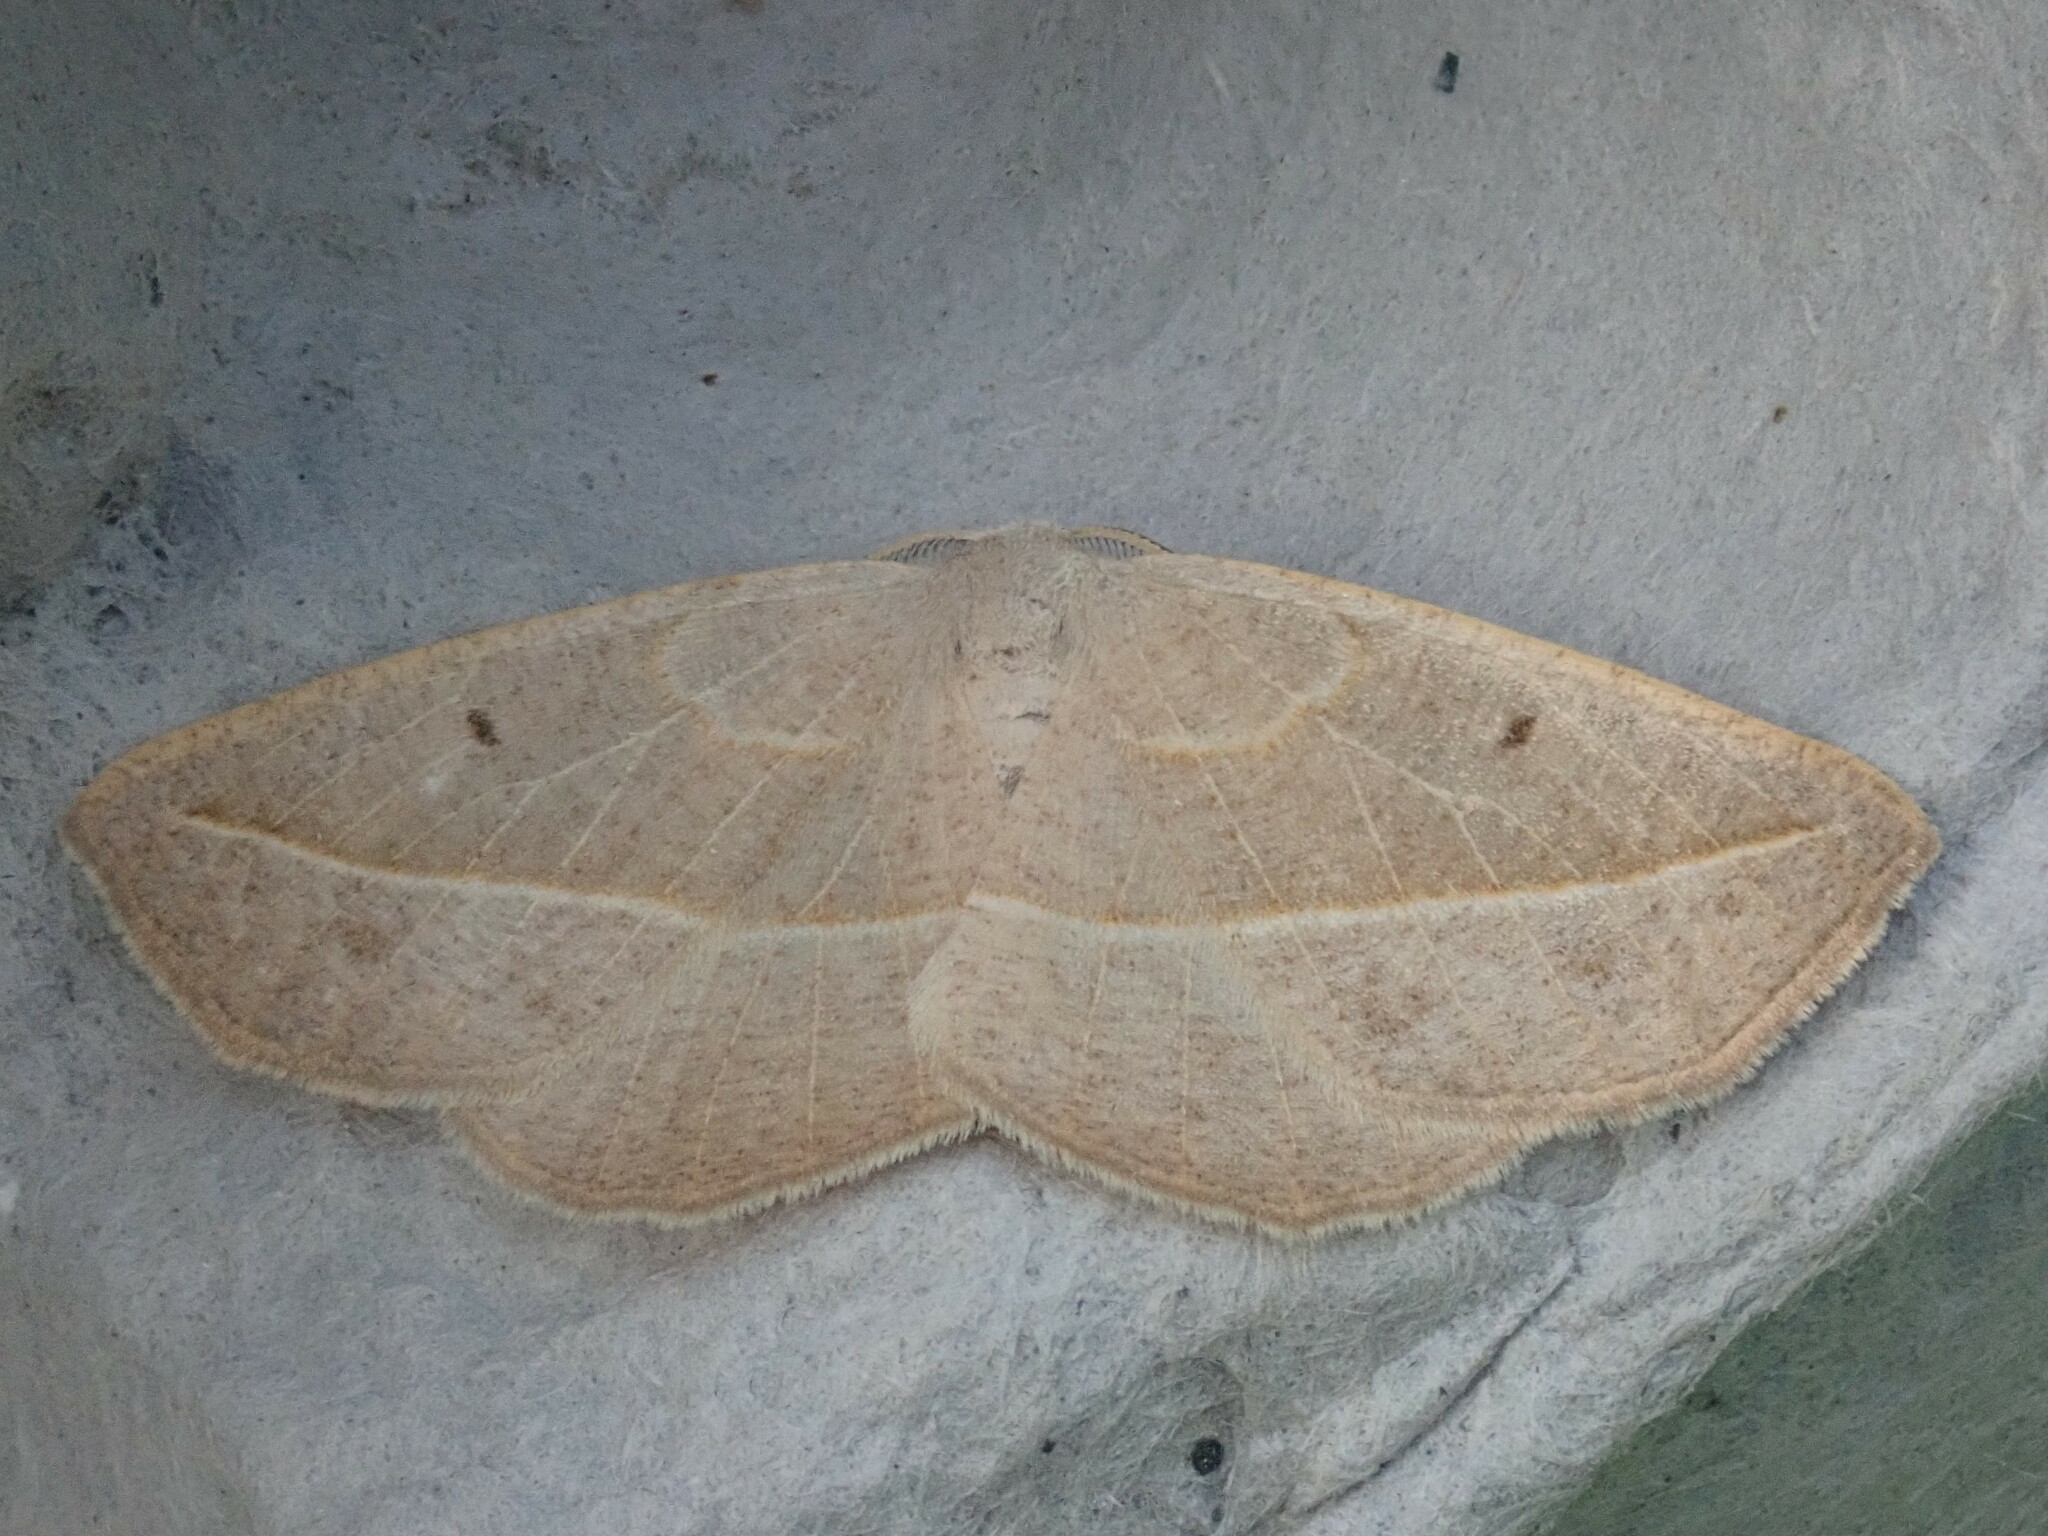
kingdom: Animalia
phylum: Arthropoda
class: Insecta
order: Lepidoptera
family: Geometridae
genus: Eusarca
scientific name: Eusarca confusaria
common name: Confused eusarca
